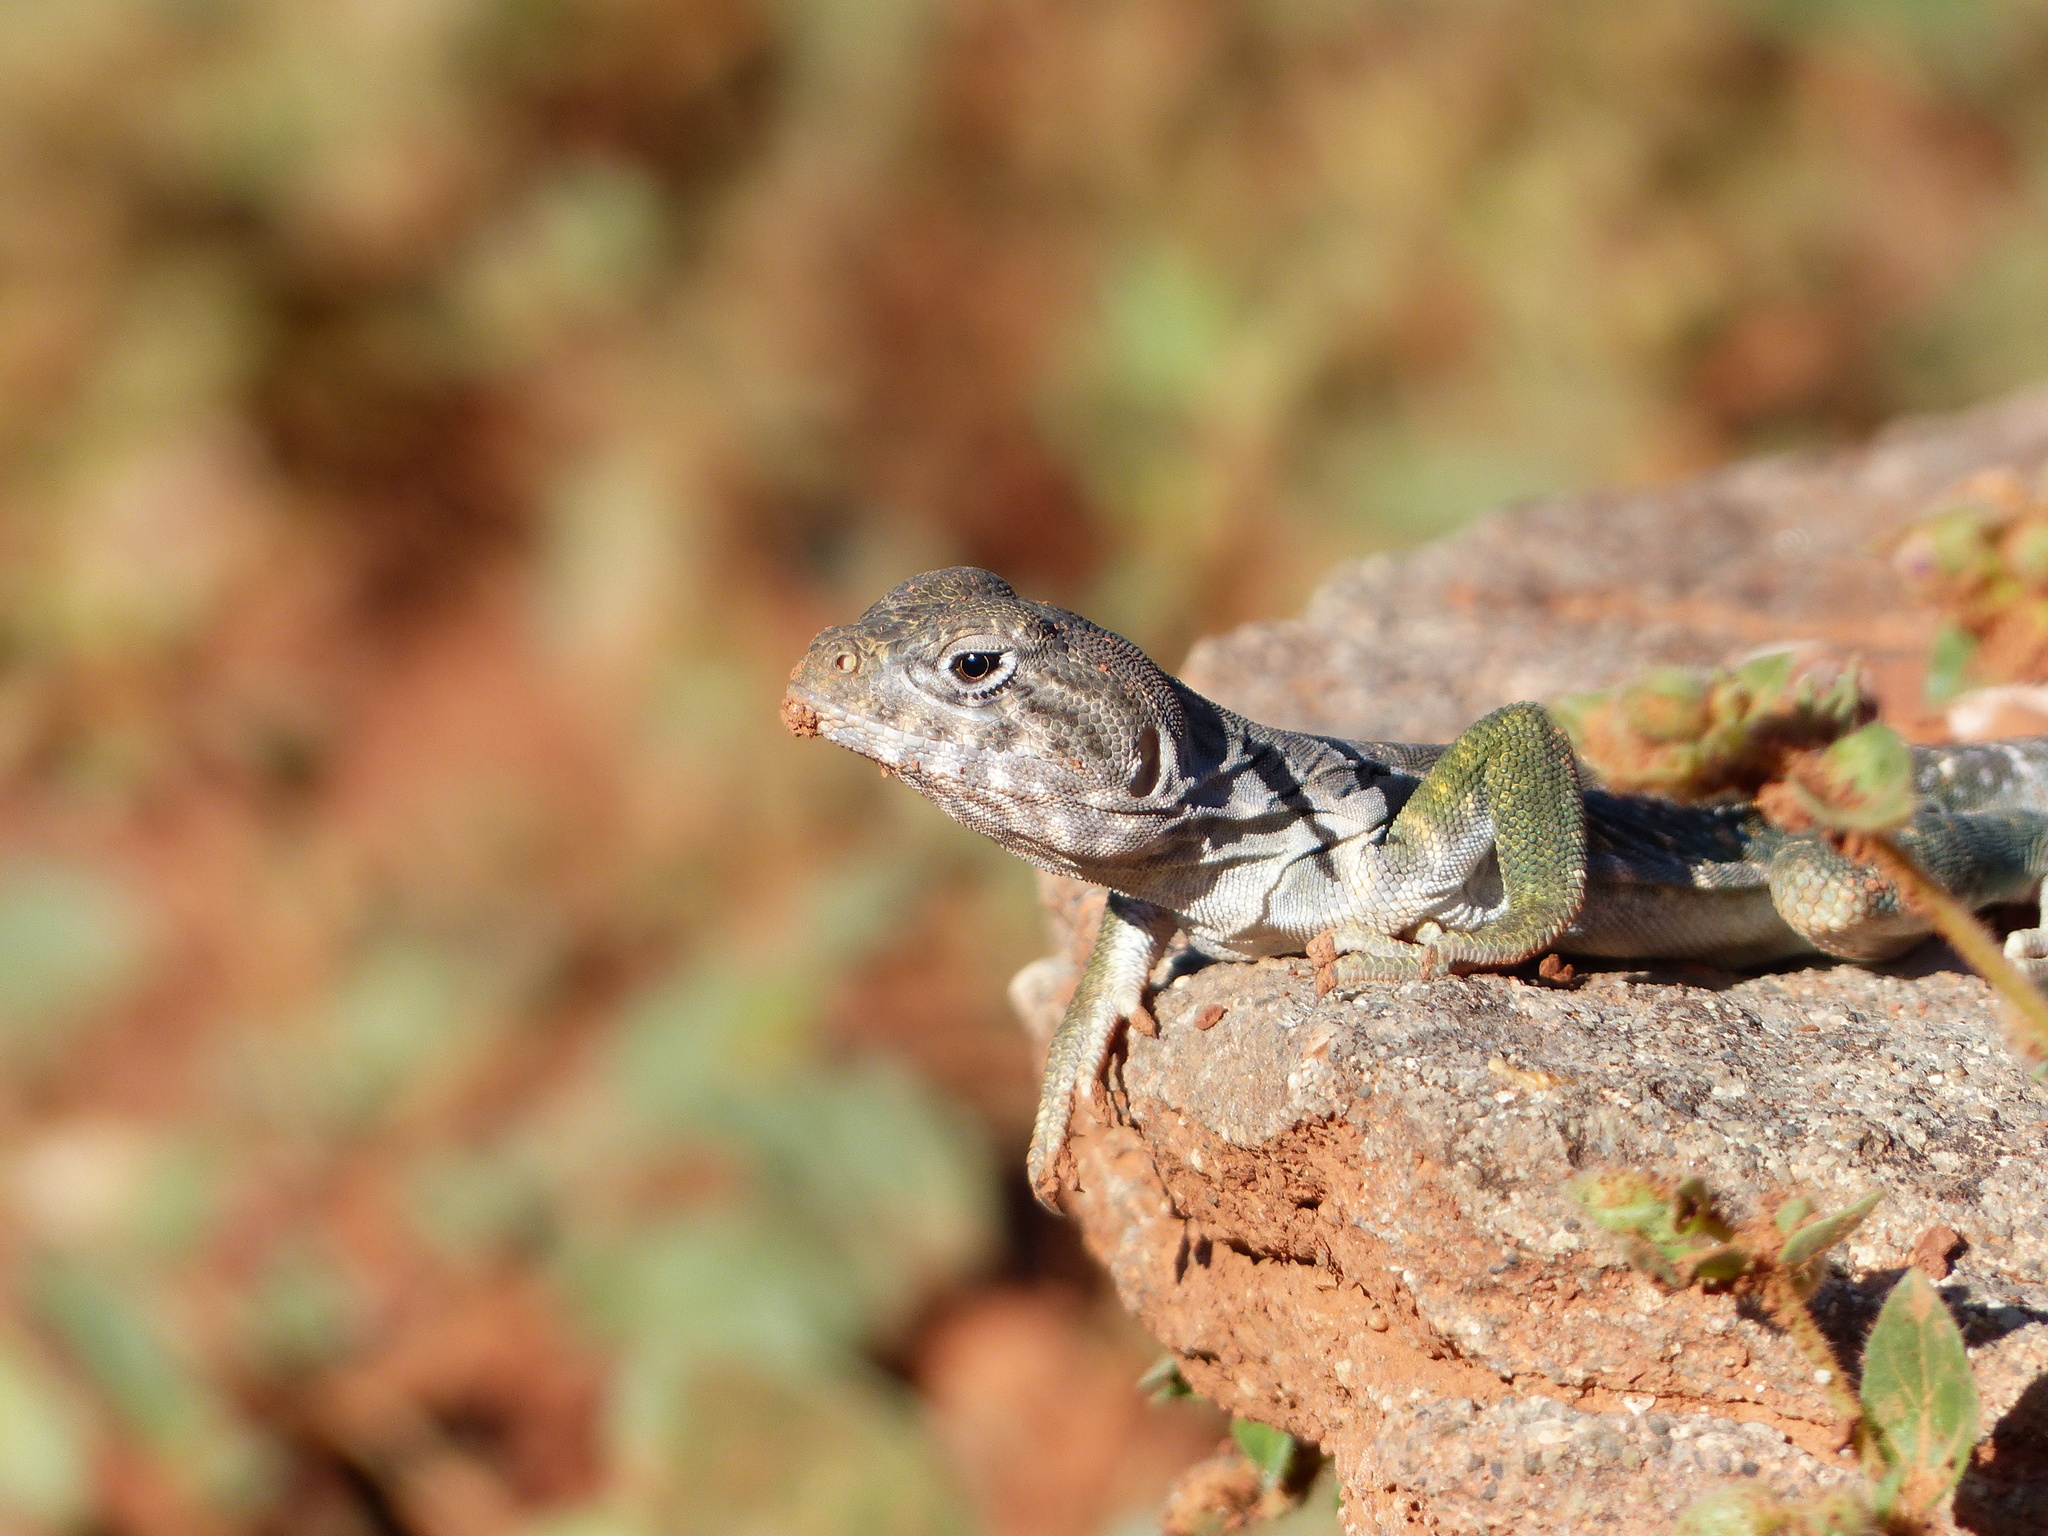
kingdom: Animalia
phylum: Chordata
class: Squamata
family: Crotaphytidae
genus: Crotaphytus
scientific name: Crotaphytus collaris
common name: Collared lizard
